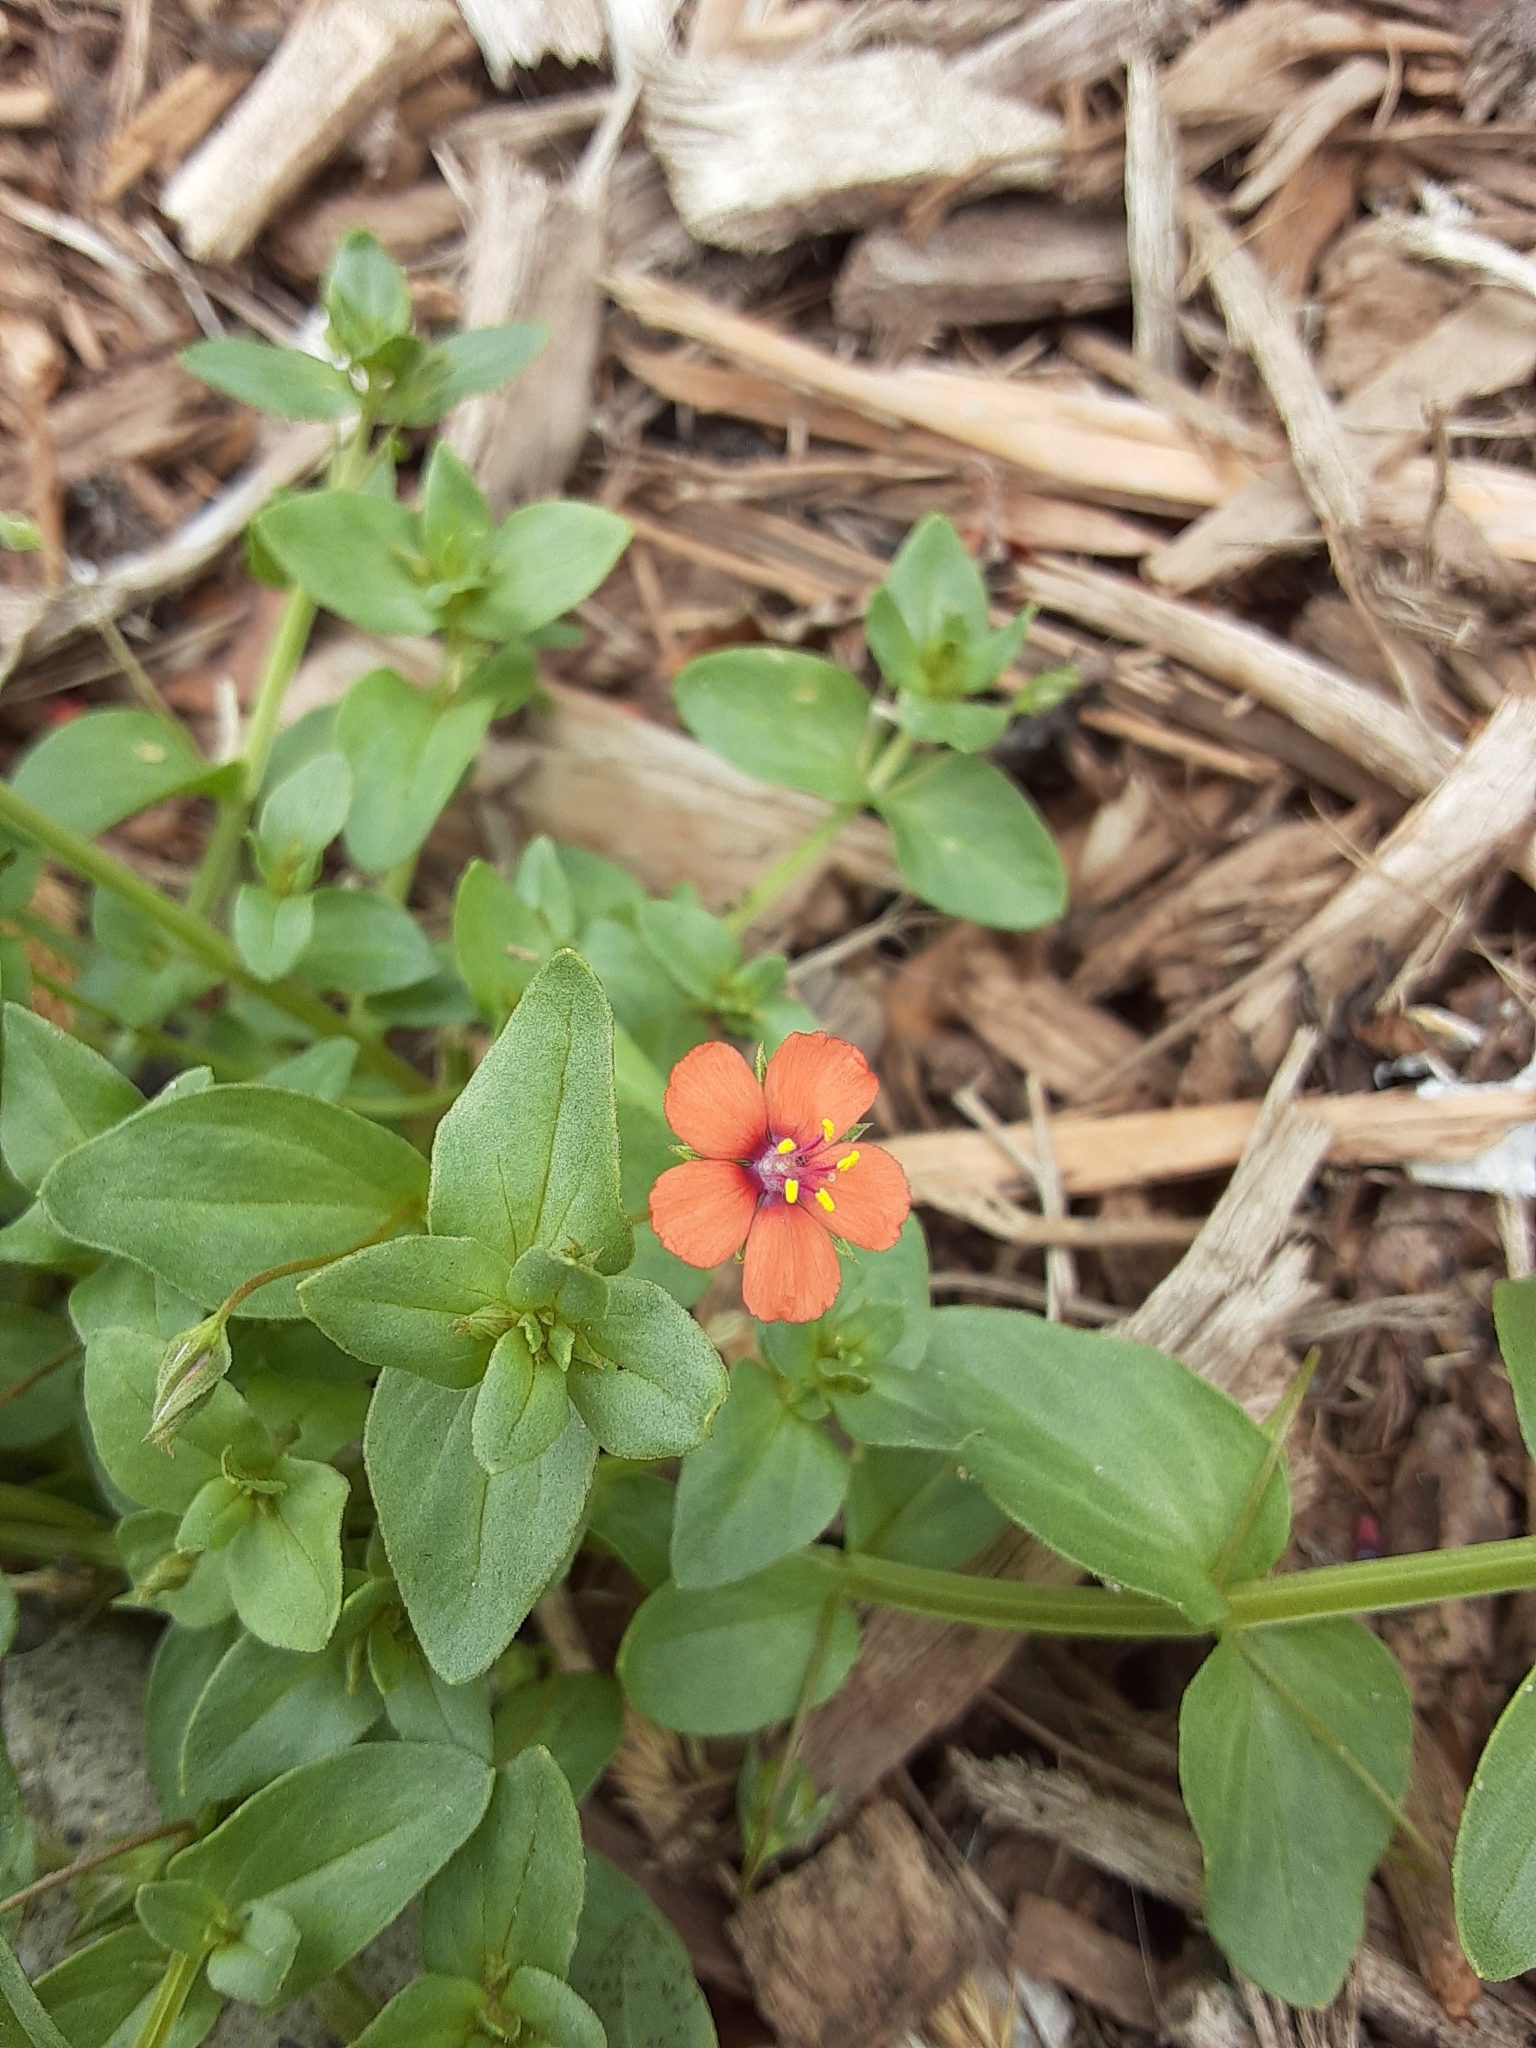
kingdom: Plantae
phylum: Tracheophyta
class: Magnoliopsida
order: Ericales
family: Primulaceae
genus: Lysimachia
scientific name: Lysimachia arvensis
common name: Scarlet pimpernel
